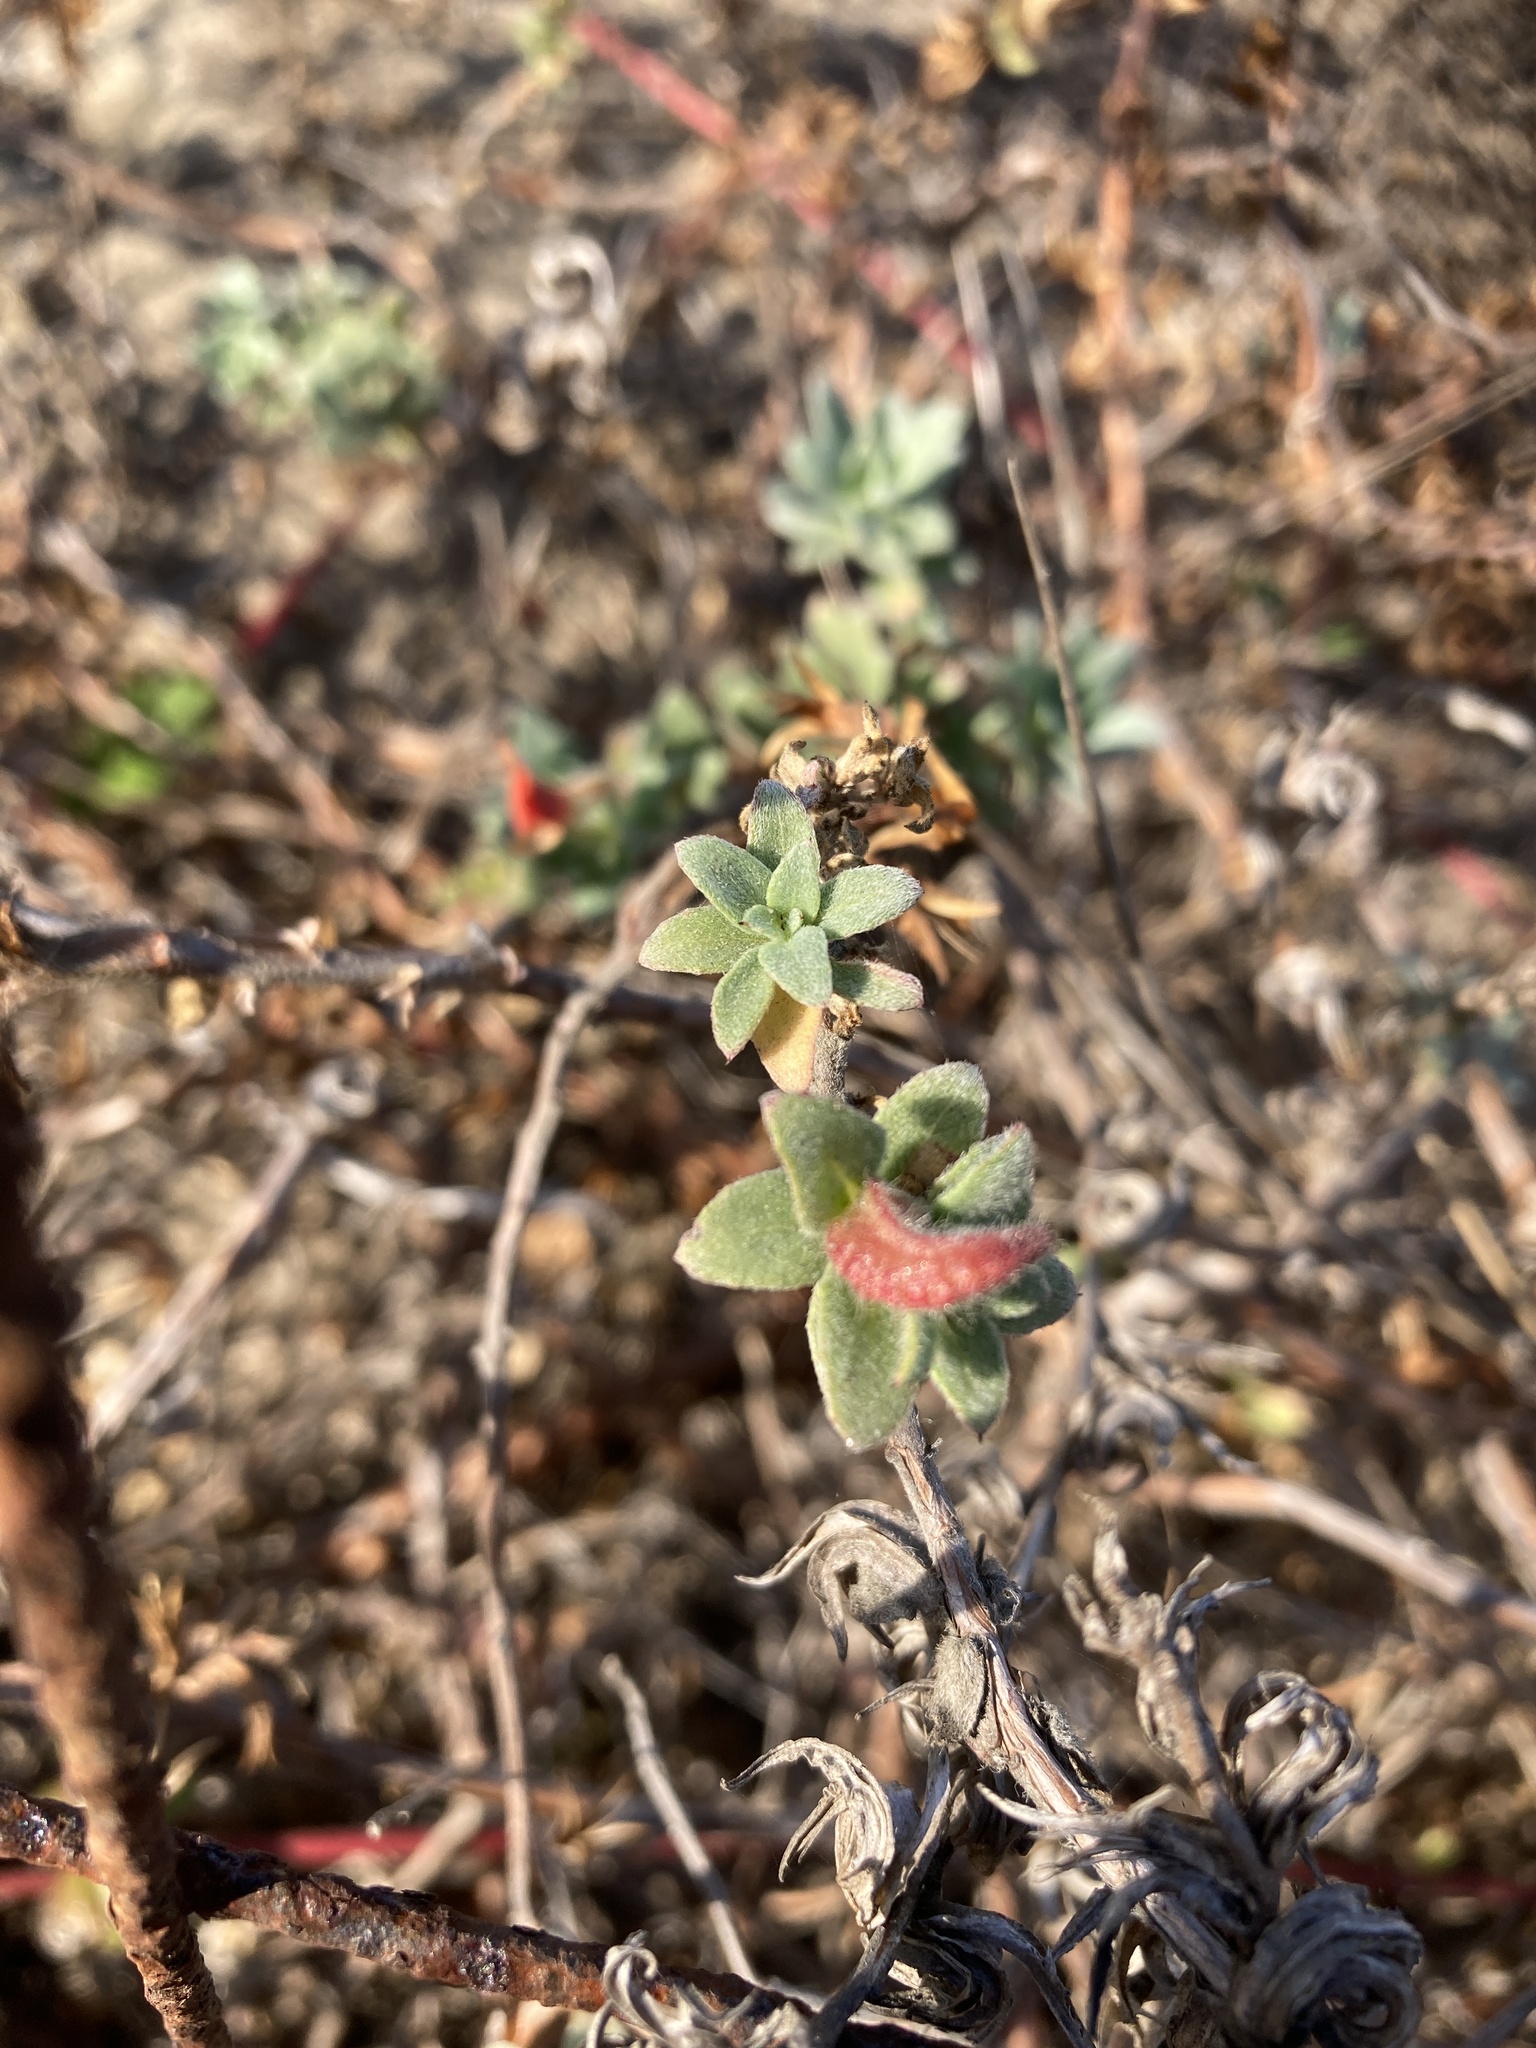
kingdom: Plantae
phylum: Tracheophyta
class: Magnoliopsida
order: Myrtales
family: Onagraceae
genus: Camissoniopsis
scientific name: Camissoniopsis cheiranthifolia
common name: Beach suncup
